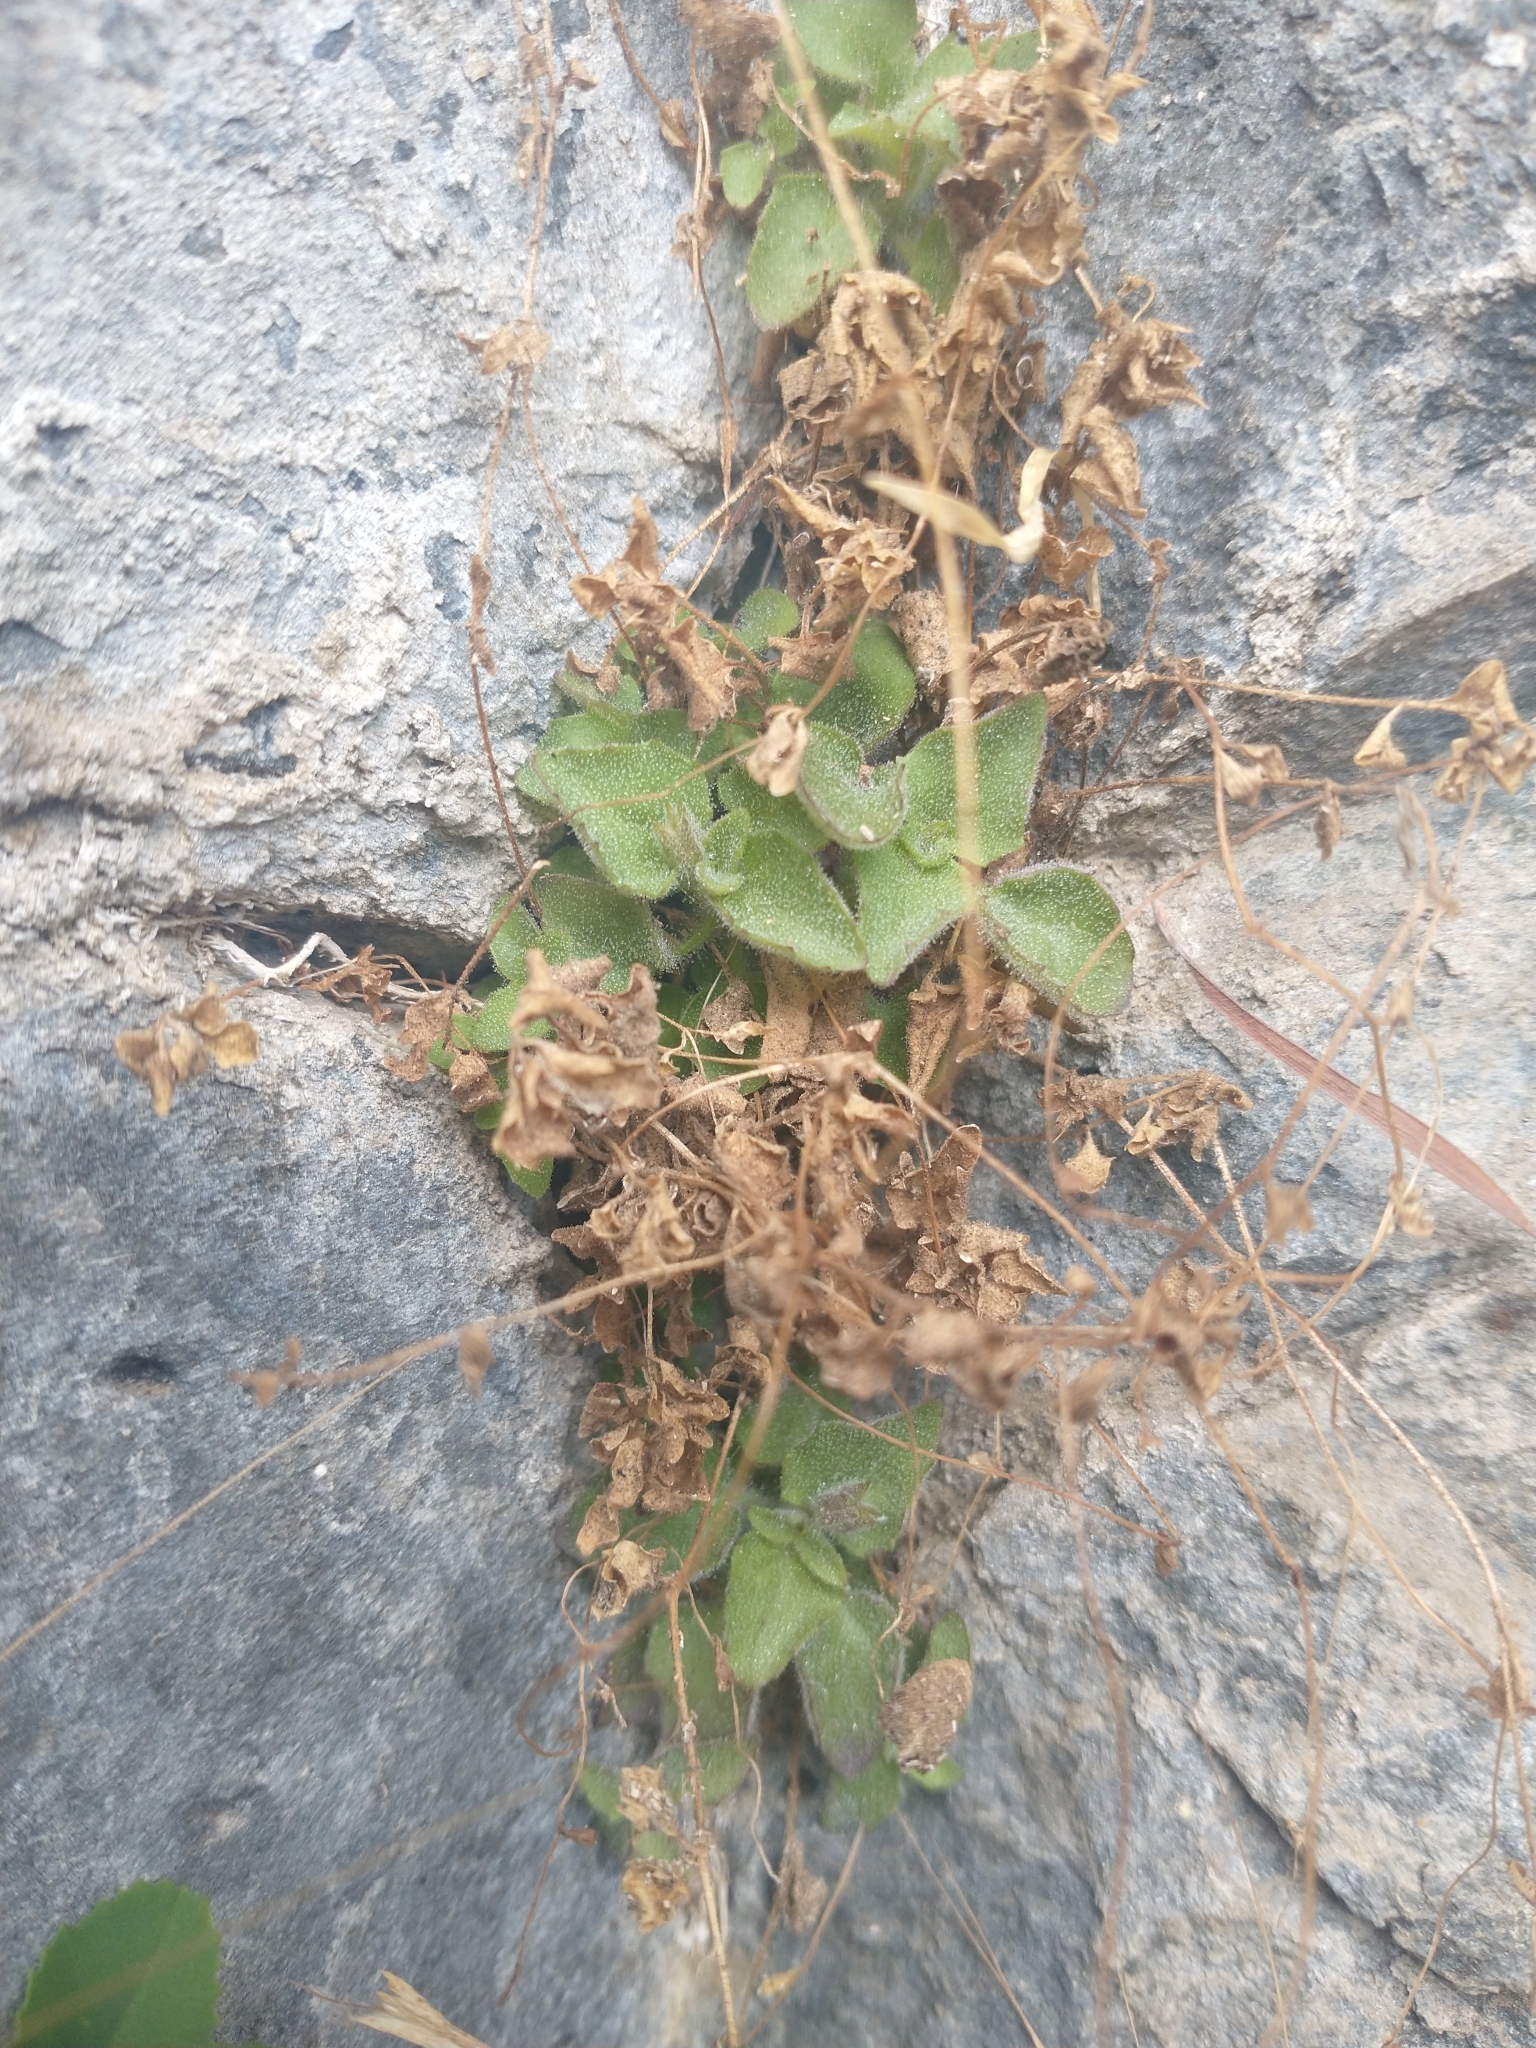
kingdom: Plantae
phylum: Tracheophyta
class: Magnoliopsida
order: Lamiales
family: Phrymaceae
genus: Erythranthe
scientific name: Erythranthe jungermannioides
